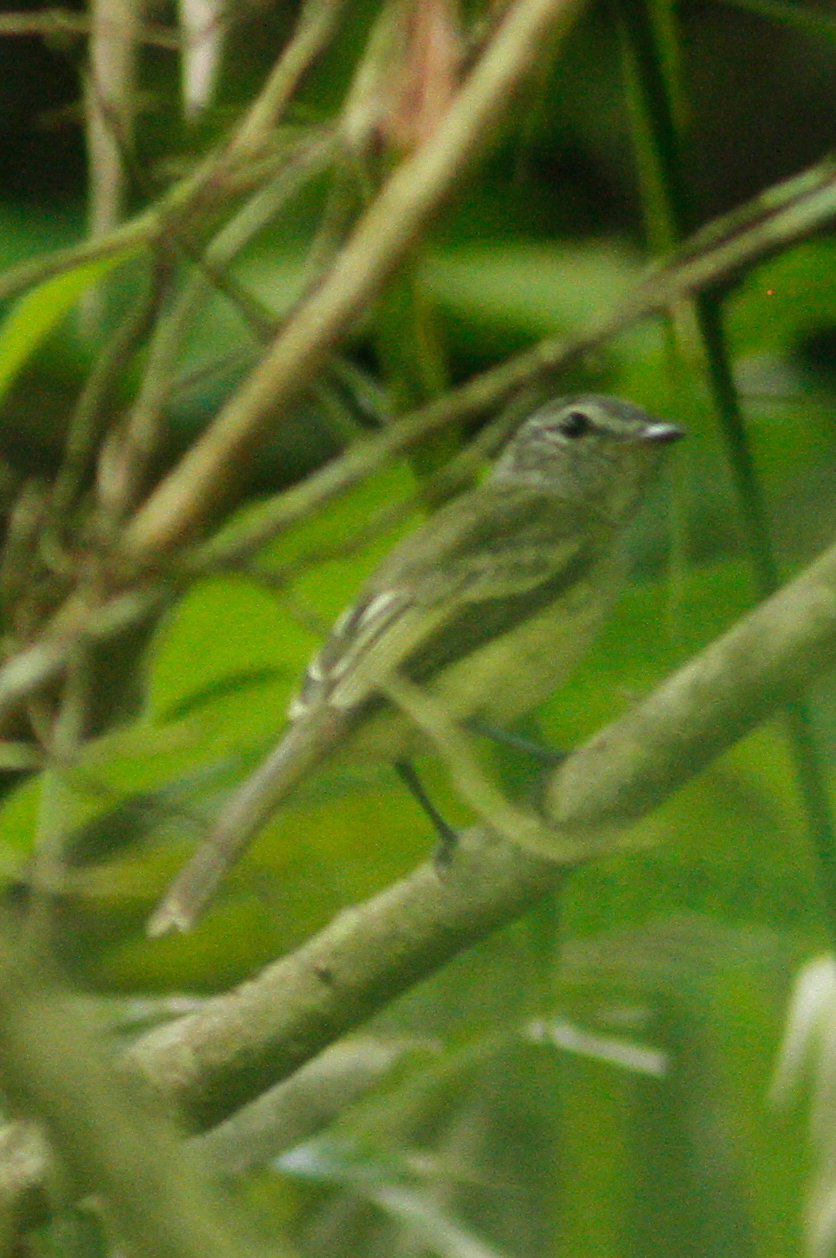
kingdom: Animalia
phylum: Chordata
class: Aves
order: Passeriformes
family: Tyrannidae
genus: Myiopagis
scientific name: Myiopagis subplacens
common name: Pacific elaenia
